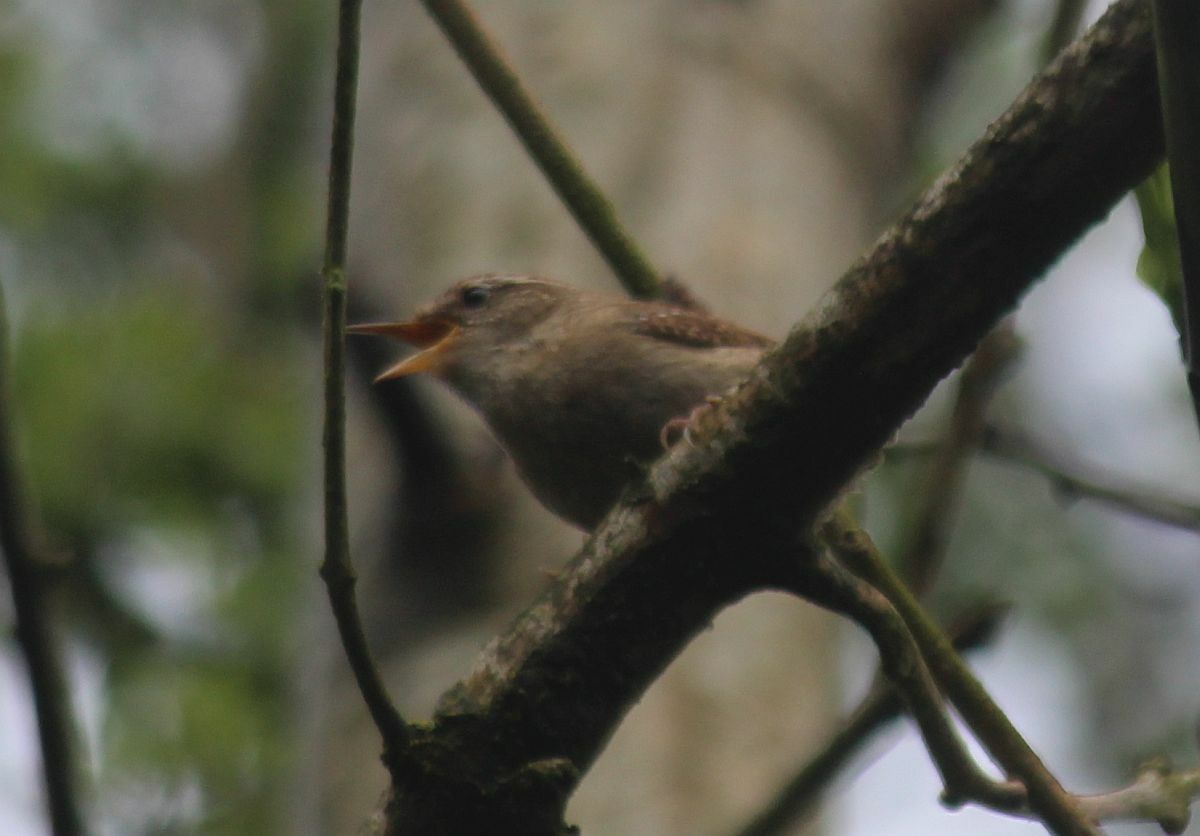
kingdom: Animalia
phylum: Chordata
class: Aves
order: Passeriformes
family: Troglodytidae
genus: Troglodytes
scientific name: Troglodytes troglodytes
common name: Eurasian wren
